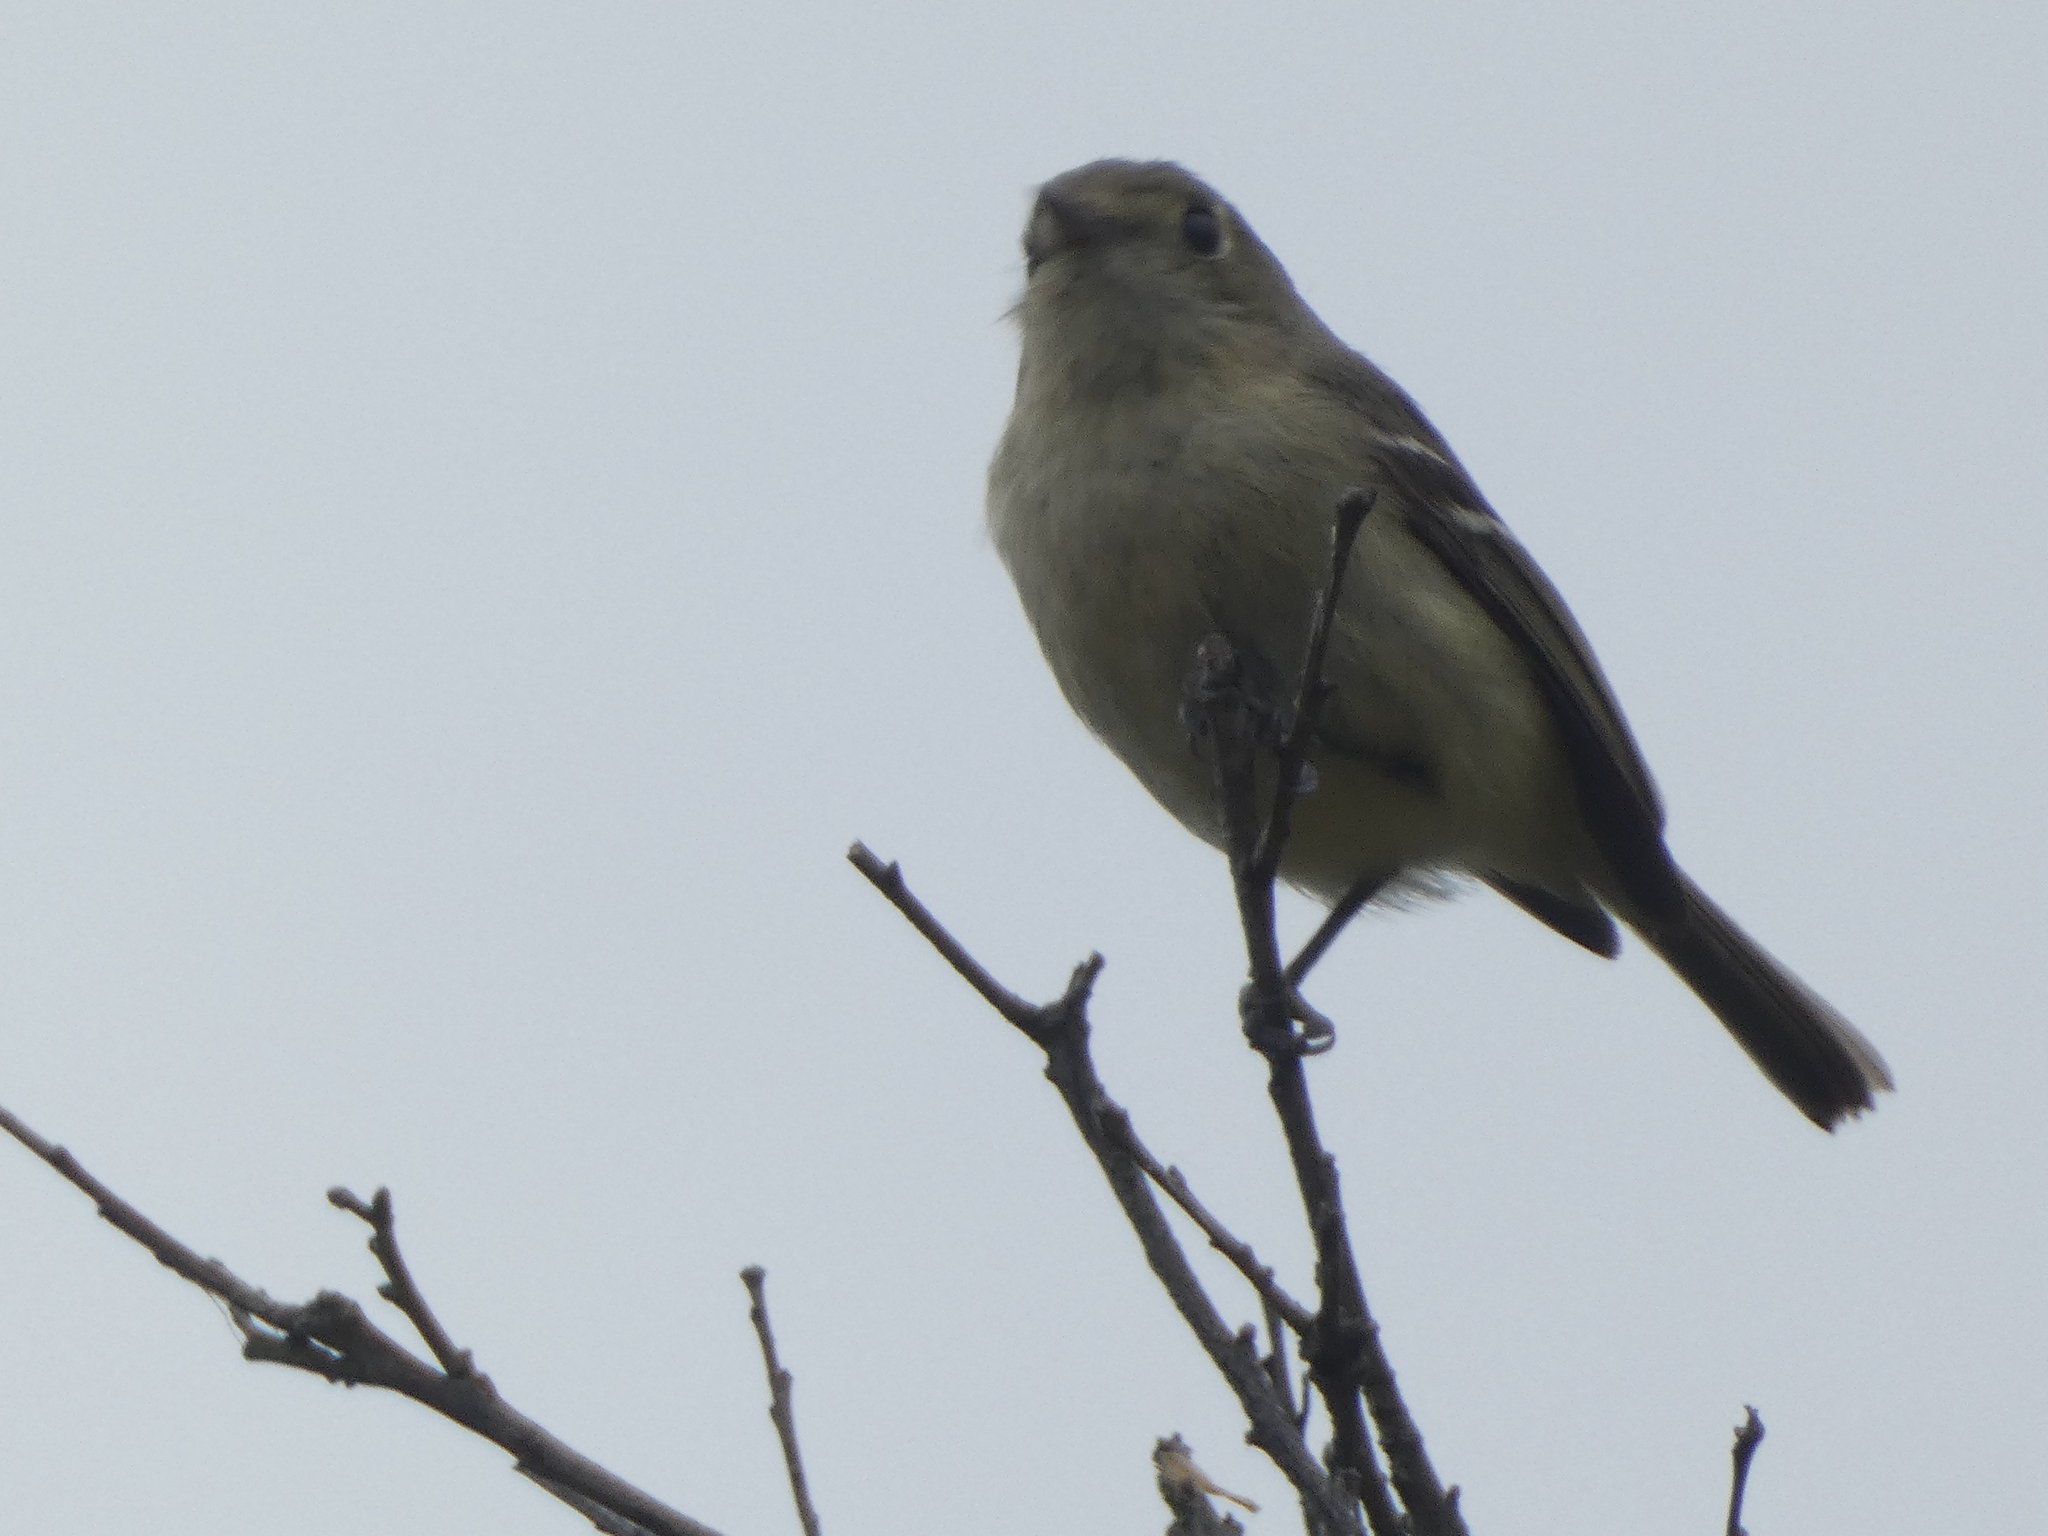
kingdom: Animalia
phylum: Chordata
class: Aves
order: Passeriformes
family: Vireonidae
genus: Vireo
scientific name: Vireo huttoni
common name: Hutton's vireo
